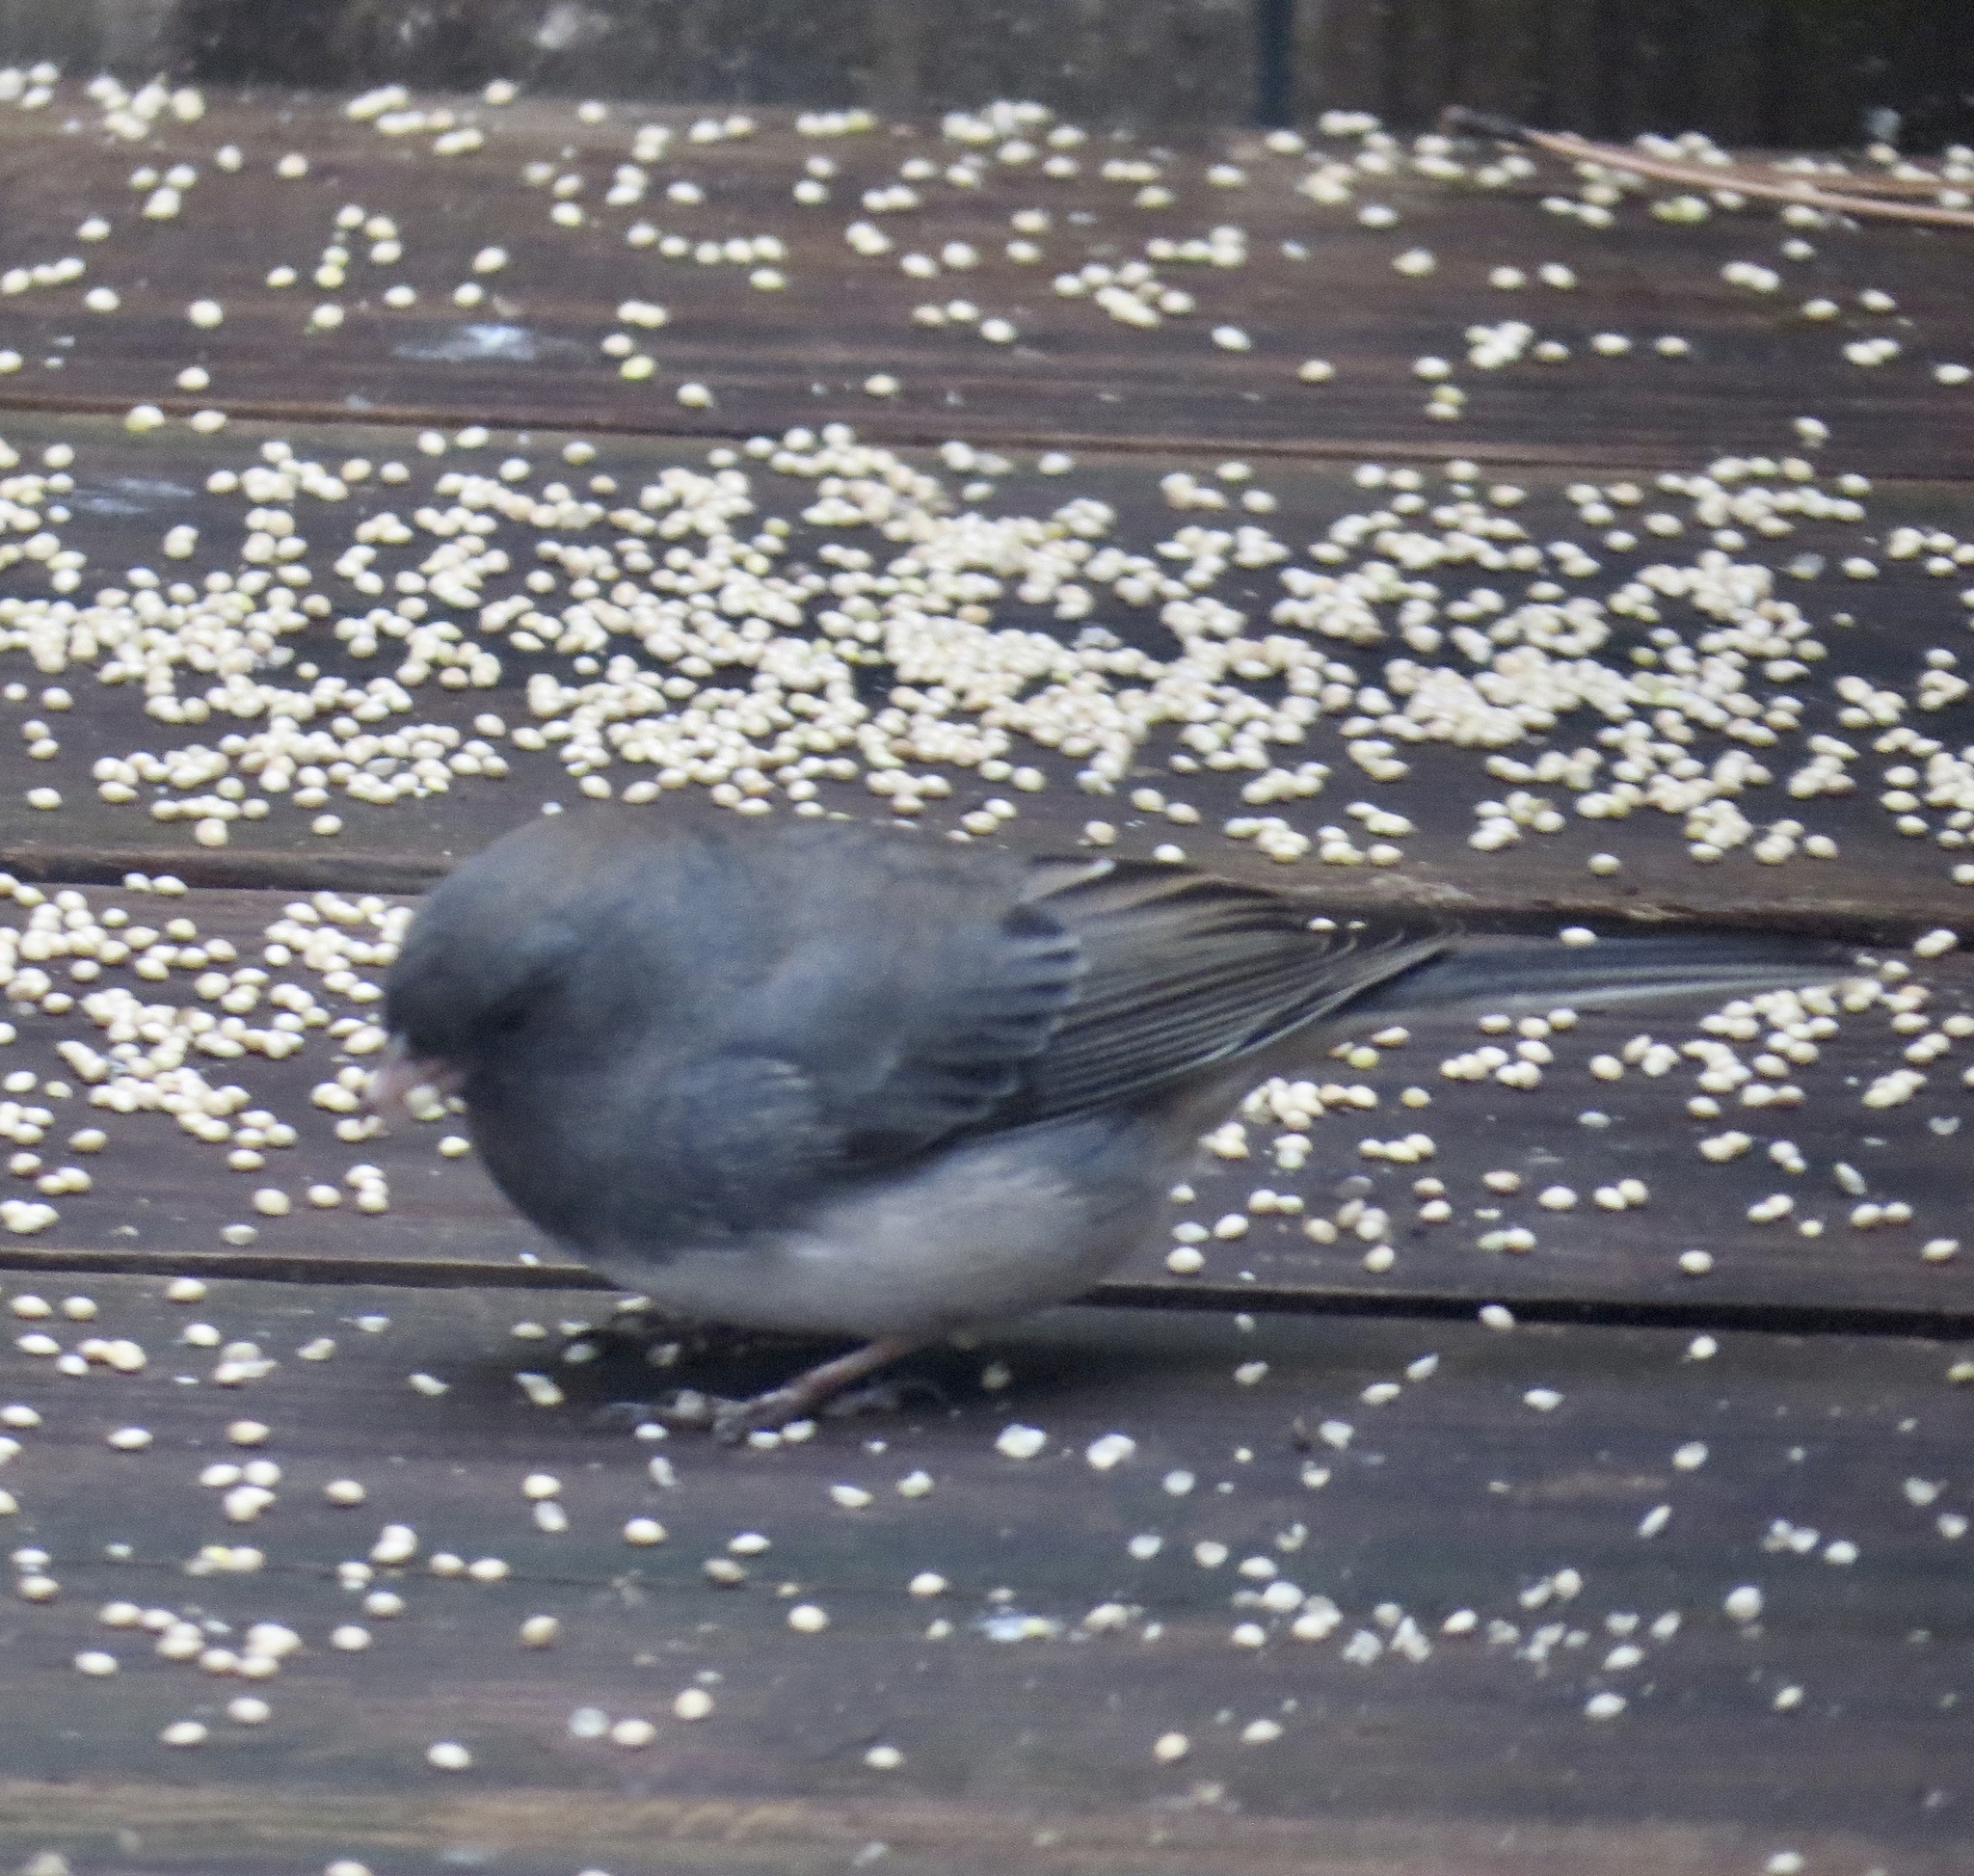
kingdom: Animalia
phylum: Chordata
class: Aves
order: Passeriformes
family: Passerellidae
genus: Junco
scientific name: Junco hyemalis
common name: Dark-eyed junco
